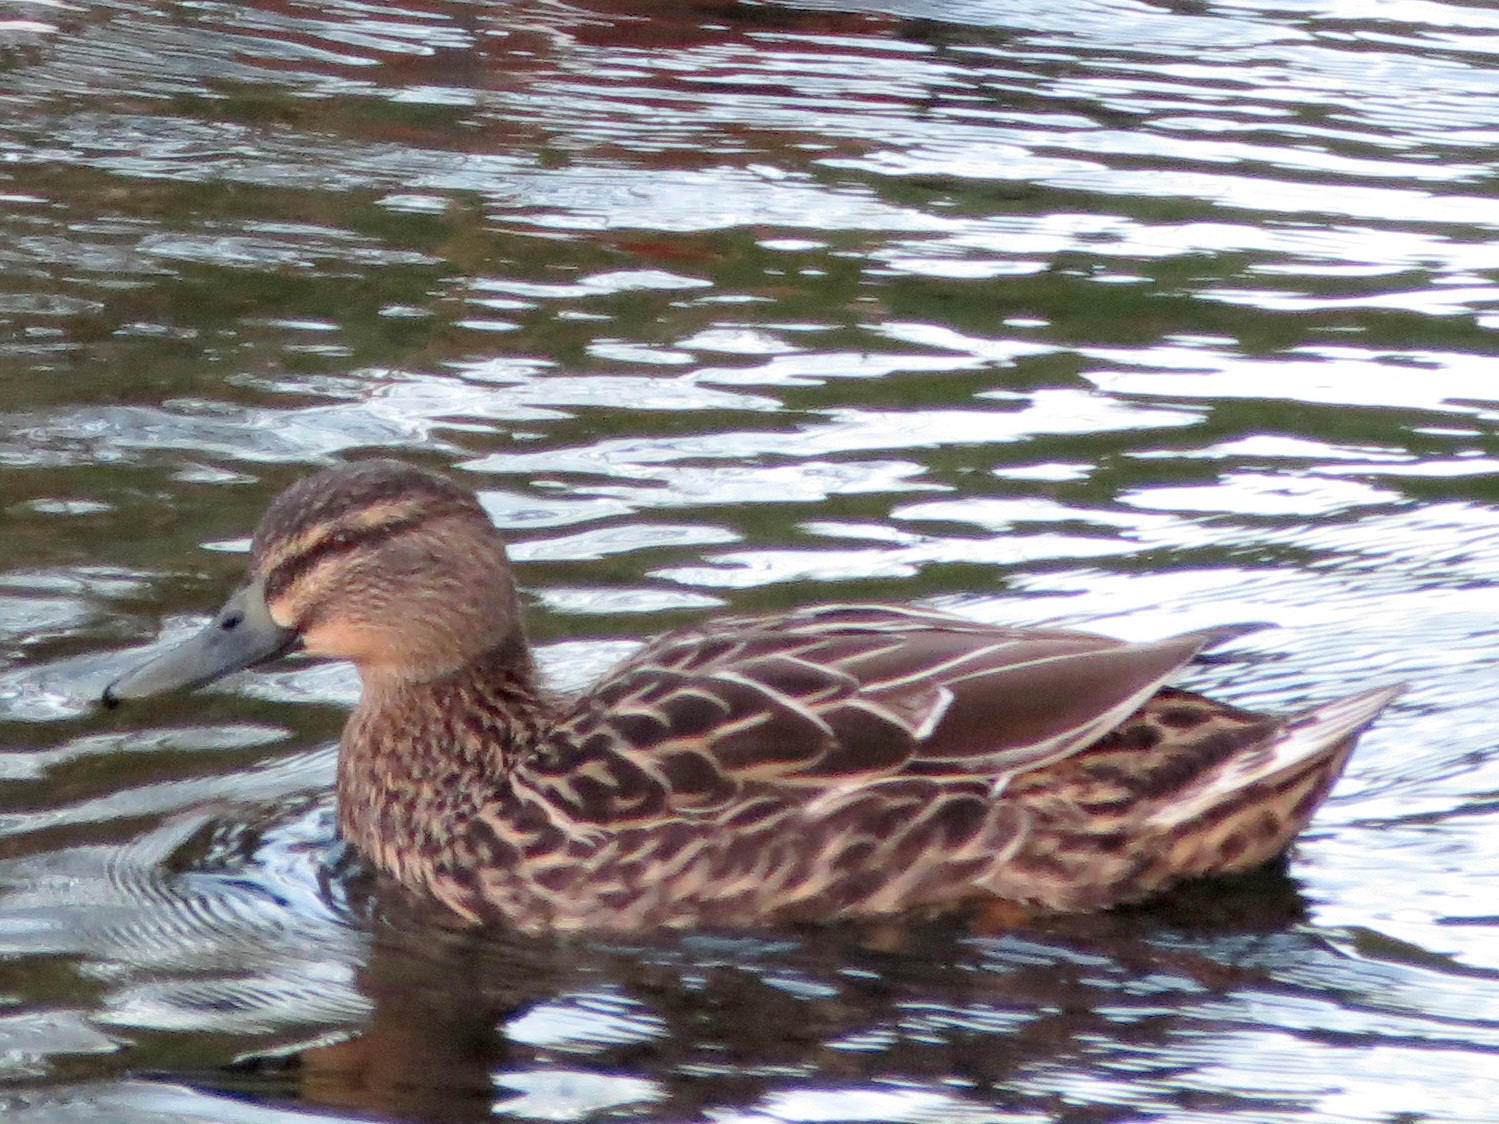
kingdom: Animalia
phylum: Chordata
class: Aves
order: Anseriformes
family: Anatidae
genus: Anas
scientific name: Anas
